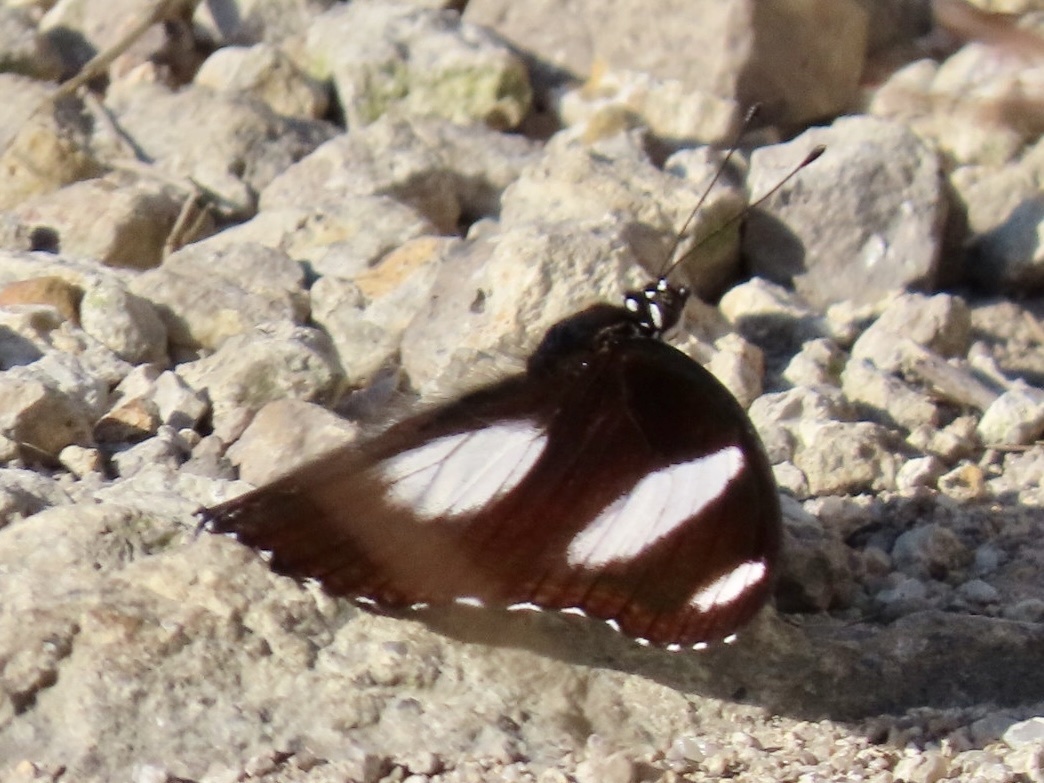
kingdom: Animalia
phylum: Arthropoda
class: Insecta
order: Lepidoptera
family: Nymphalidae
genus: Hypolimnas
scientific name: Hypolimnas misippus
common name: False plain tiger
